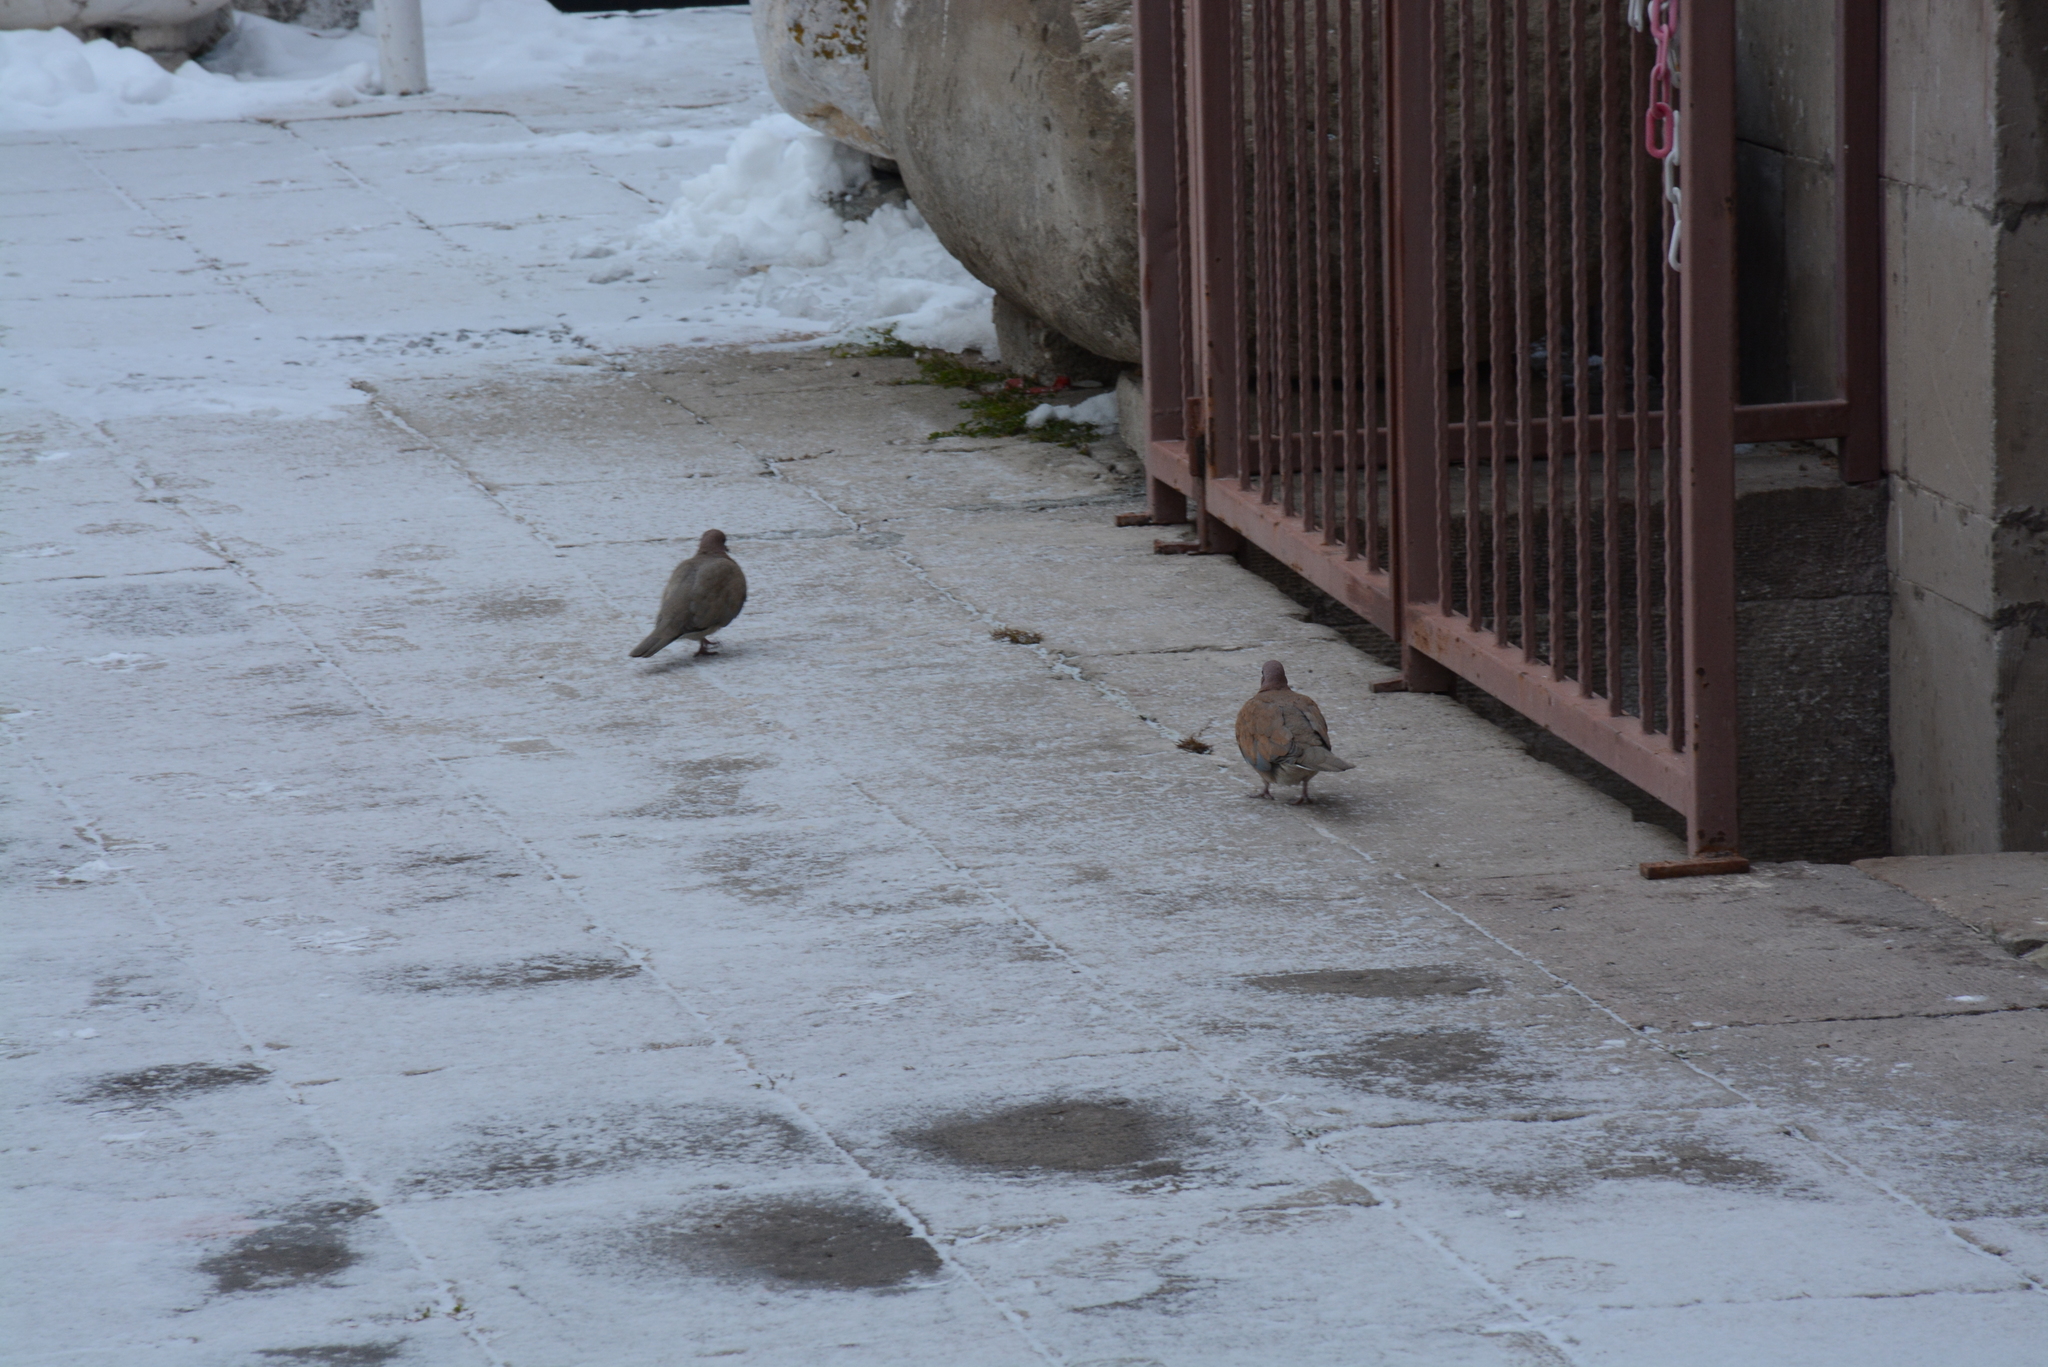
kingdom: Animalia
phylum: Chordata
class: Aves
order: Columbiformes
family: Columbidae
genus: Spilopelia
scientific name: Spilopelia senegalensis
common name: Laughing dove
